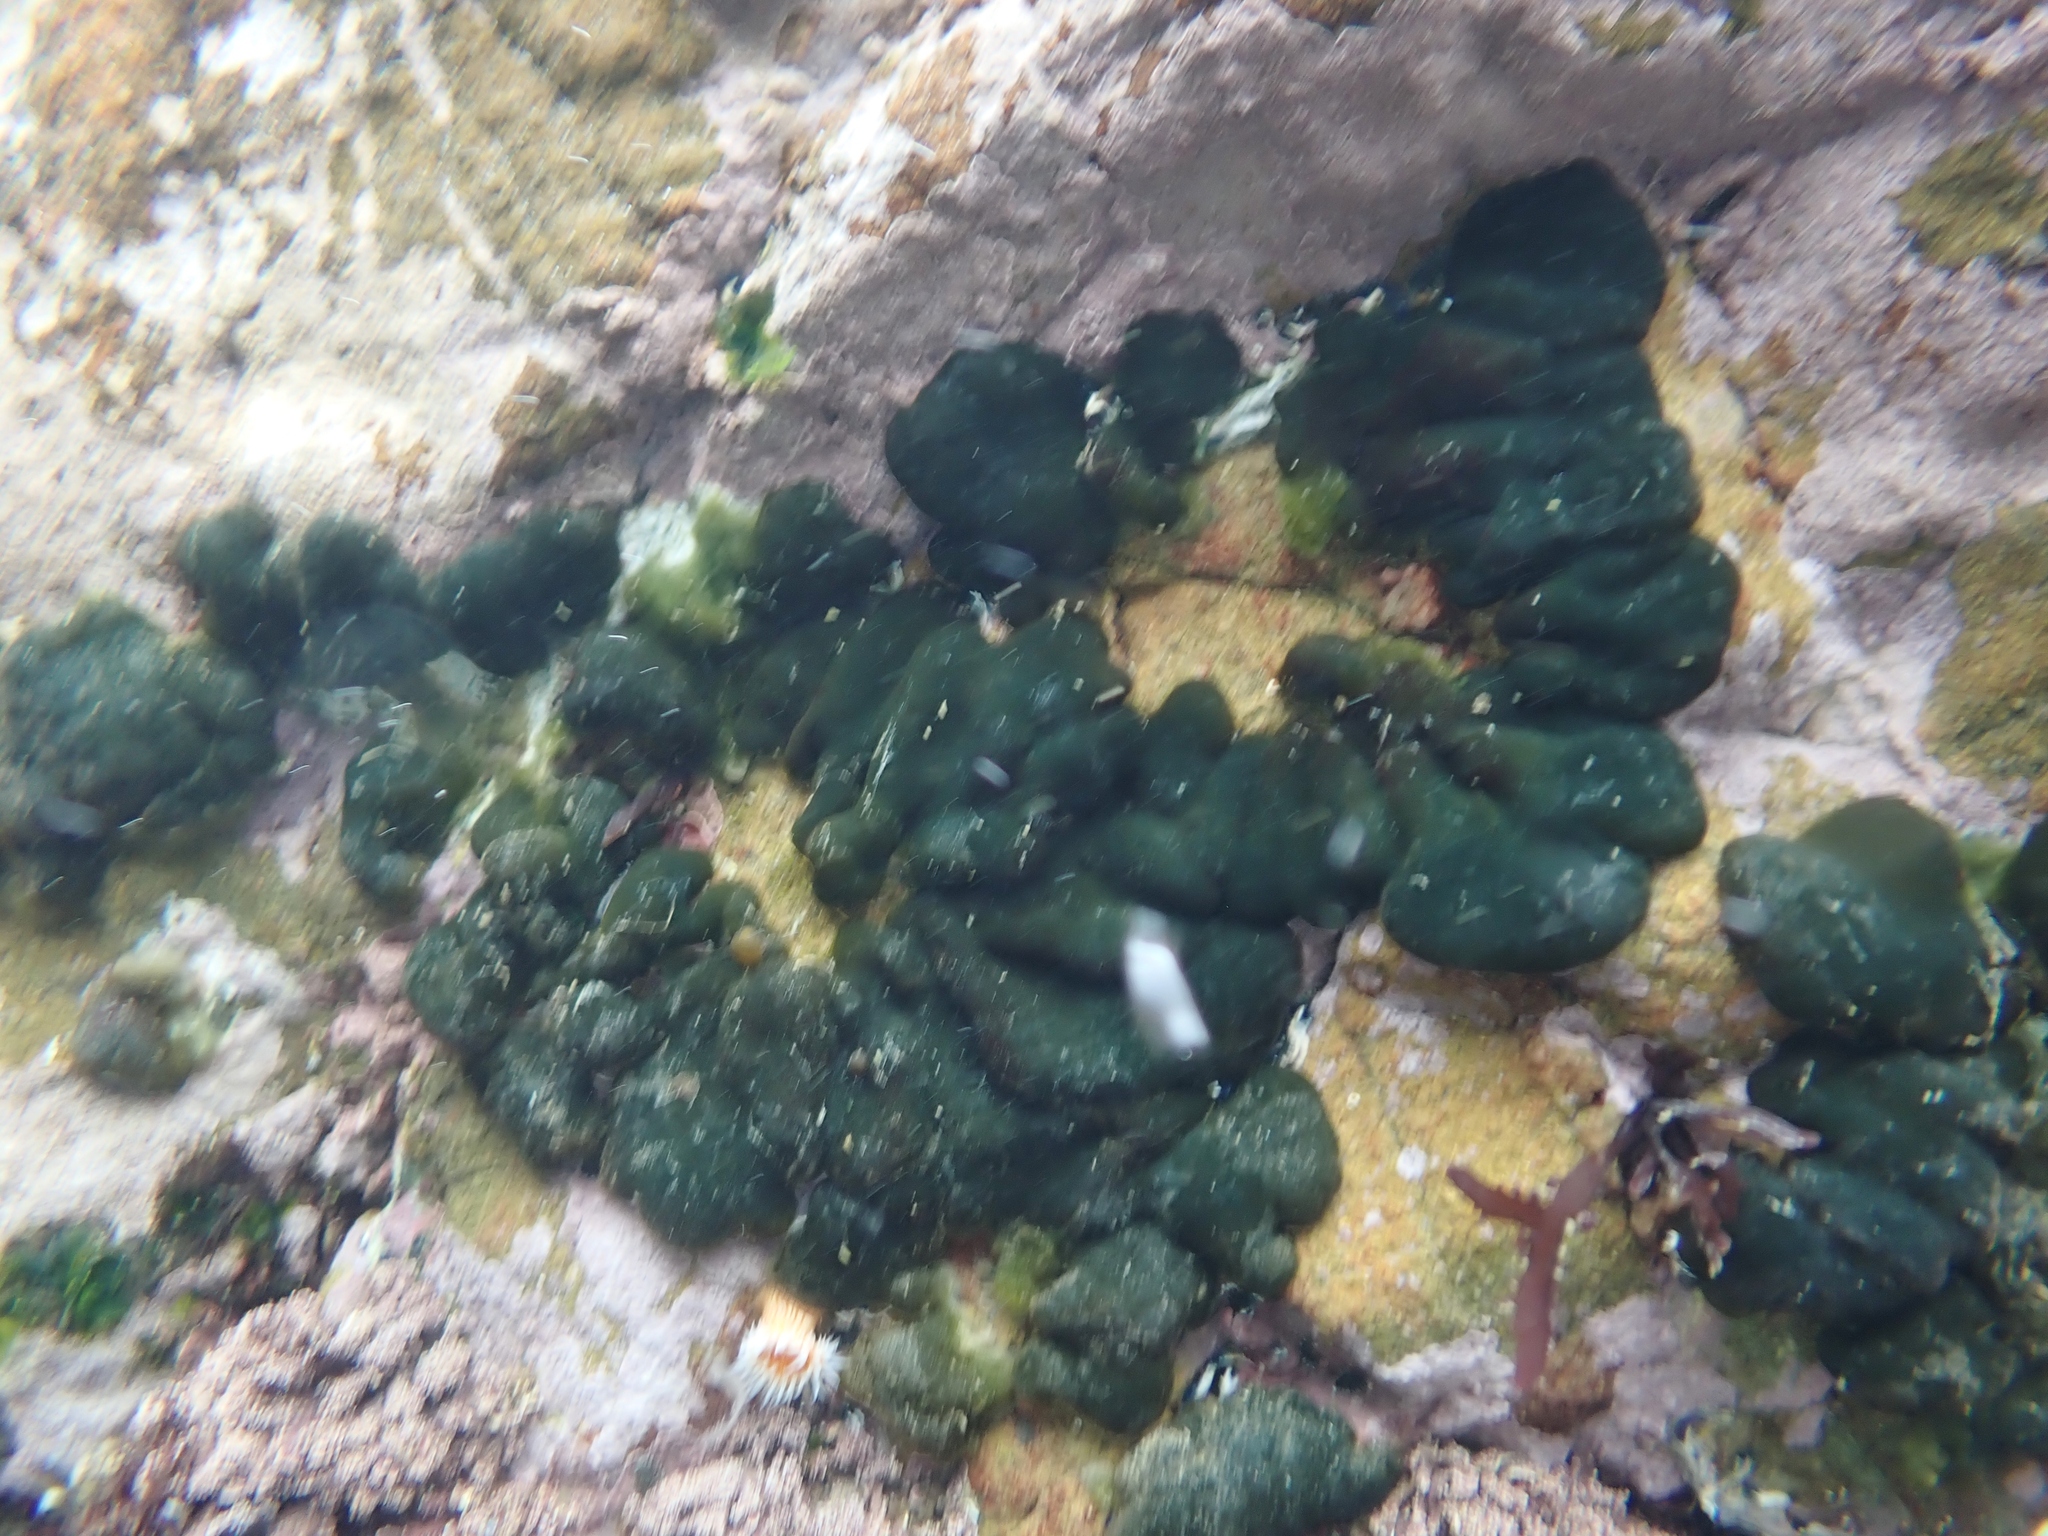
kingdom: Animalia
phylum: Mollusca
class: Gastropoda
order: Runcinida
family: Runcinidae
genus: Runcina
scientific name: Runcina katipoides
